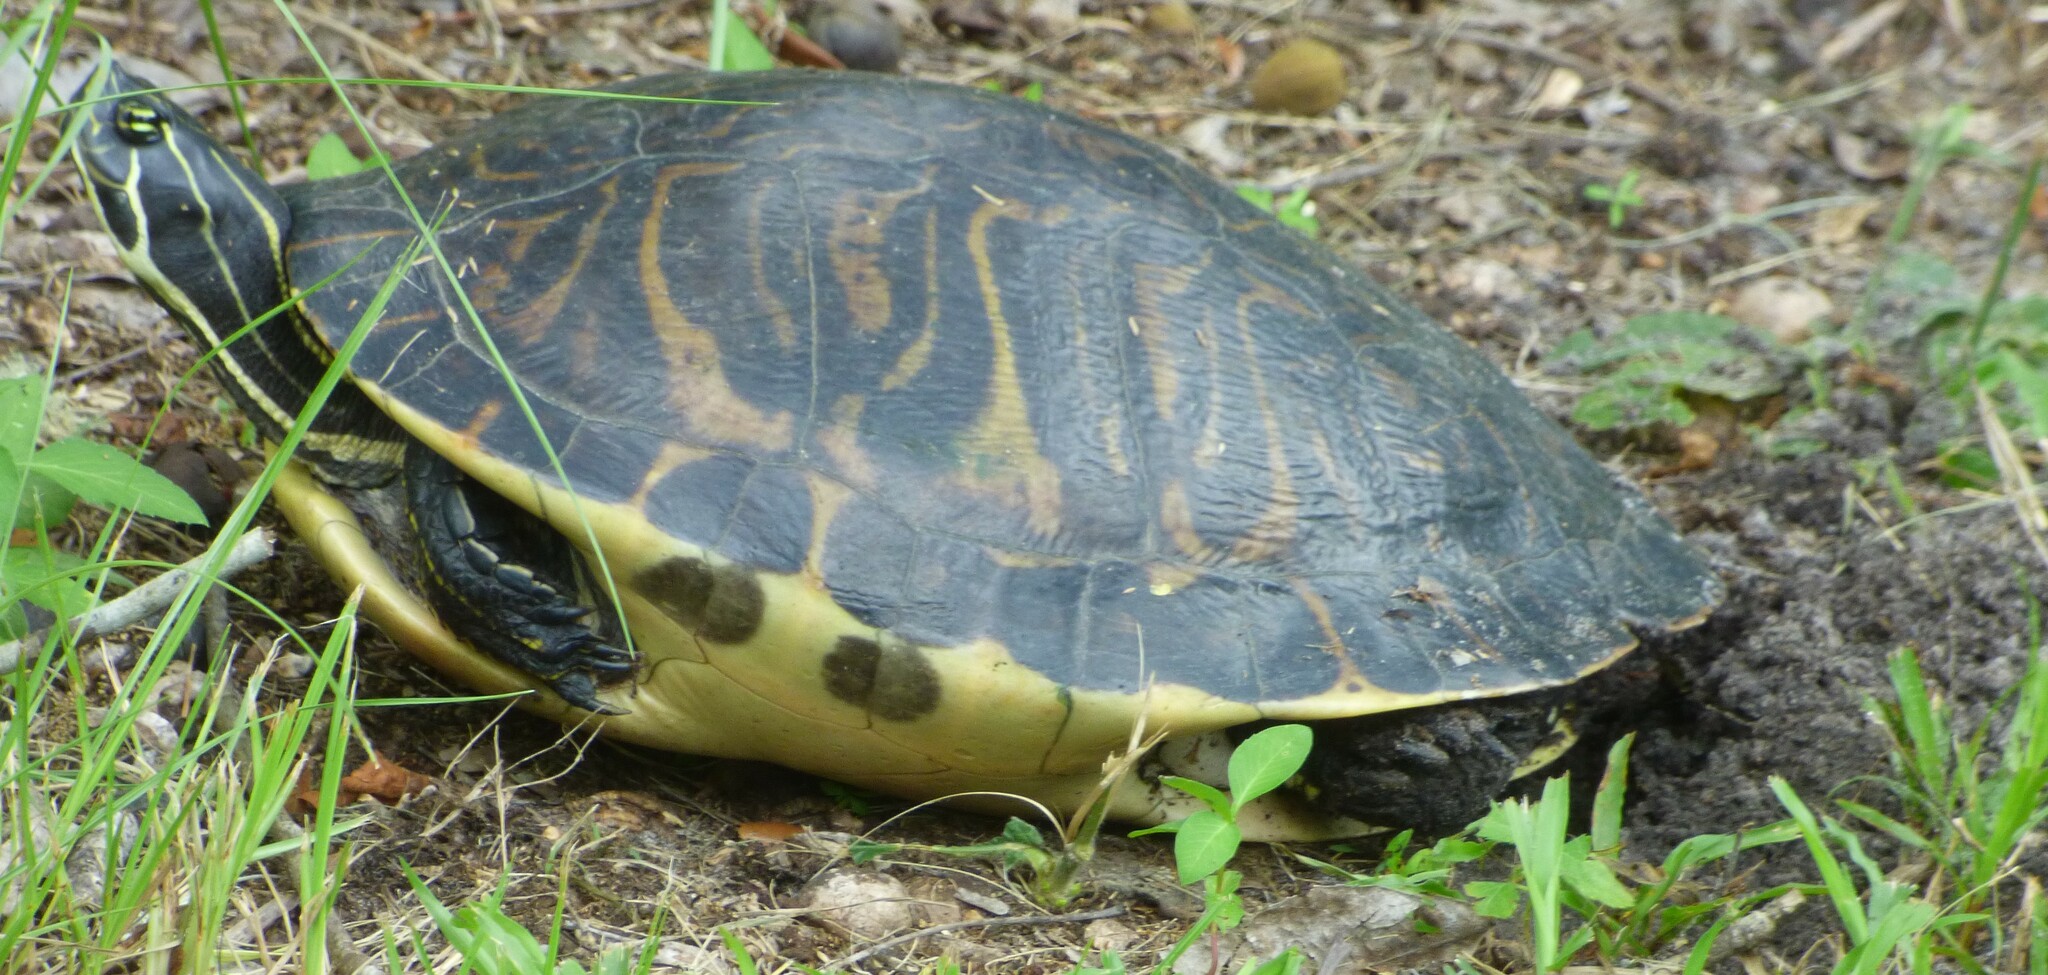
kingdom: Animalia
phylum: Chordata
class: Testudines
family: Emydidae
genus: Pseudemys
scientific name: Pseudemys peninsularis
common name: Peninsula cooter
